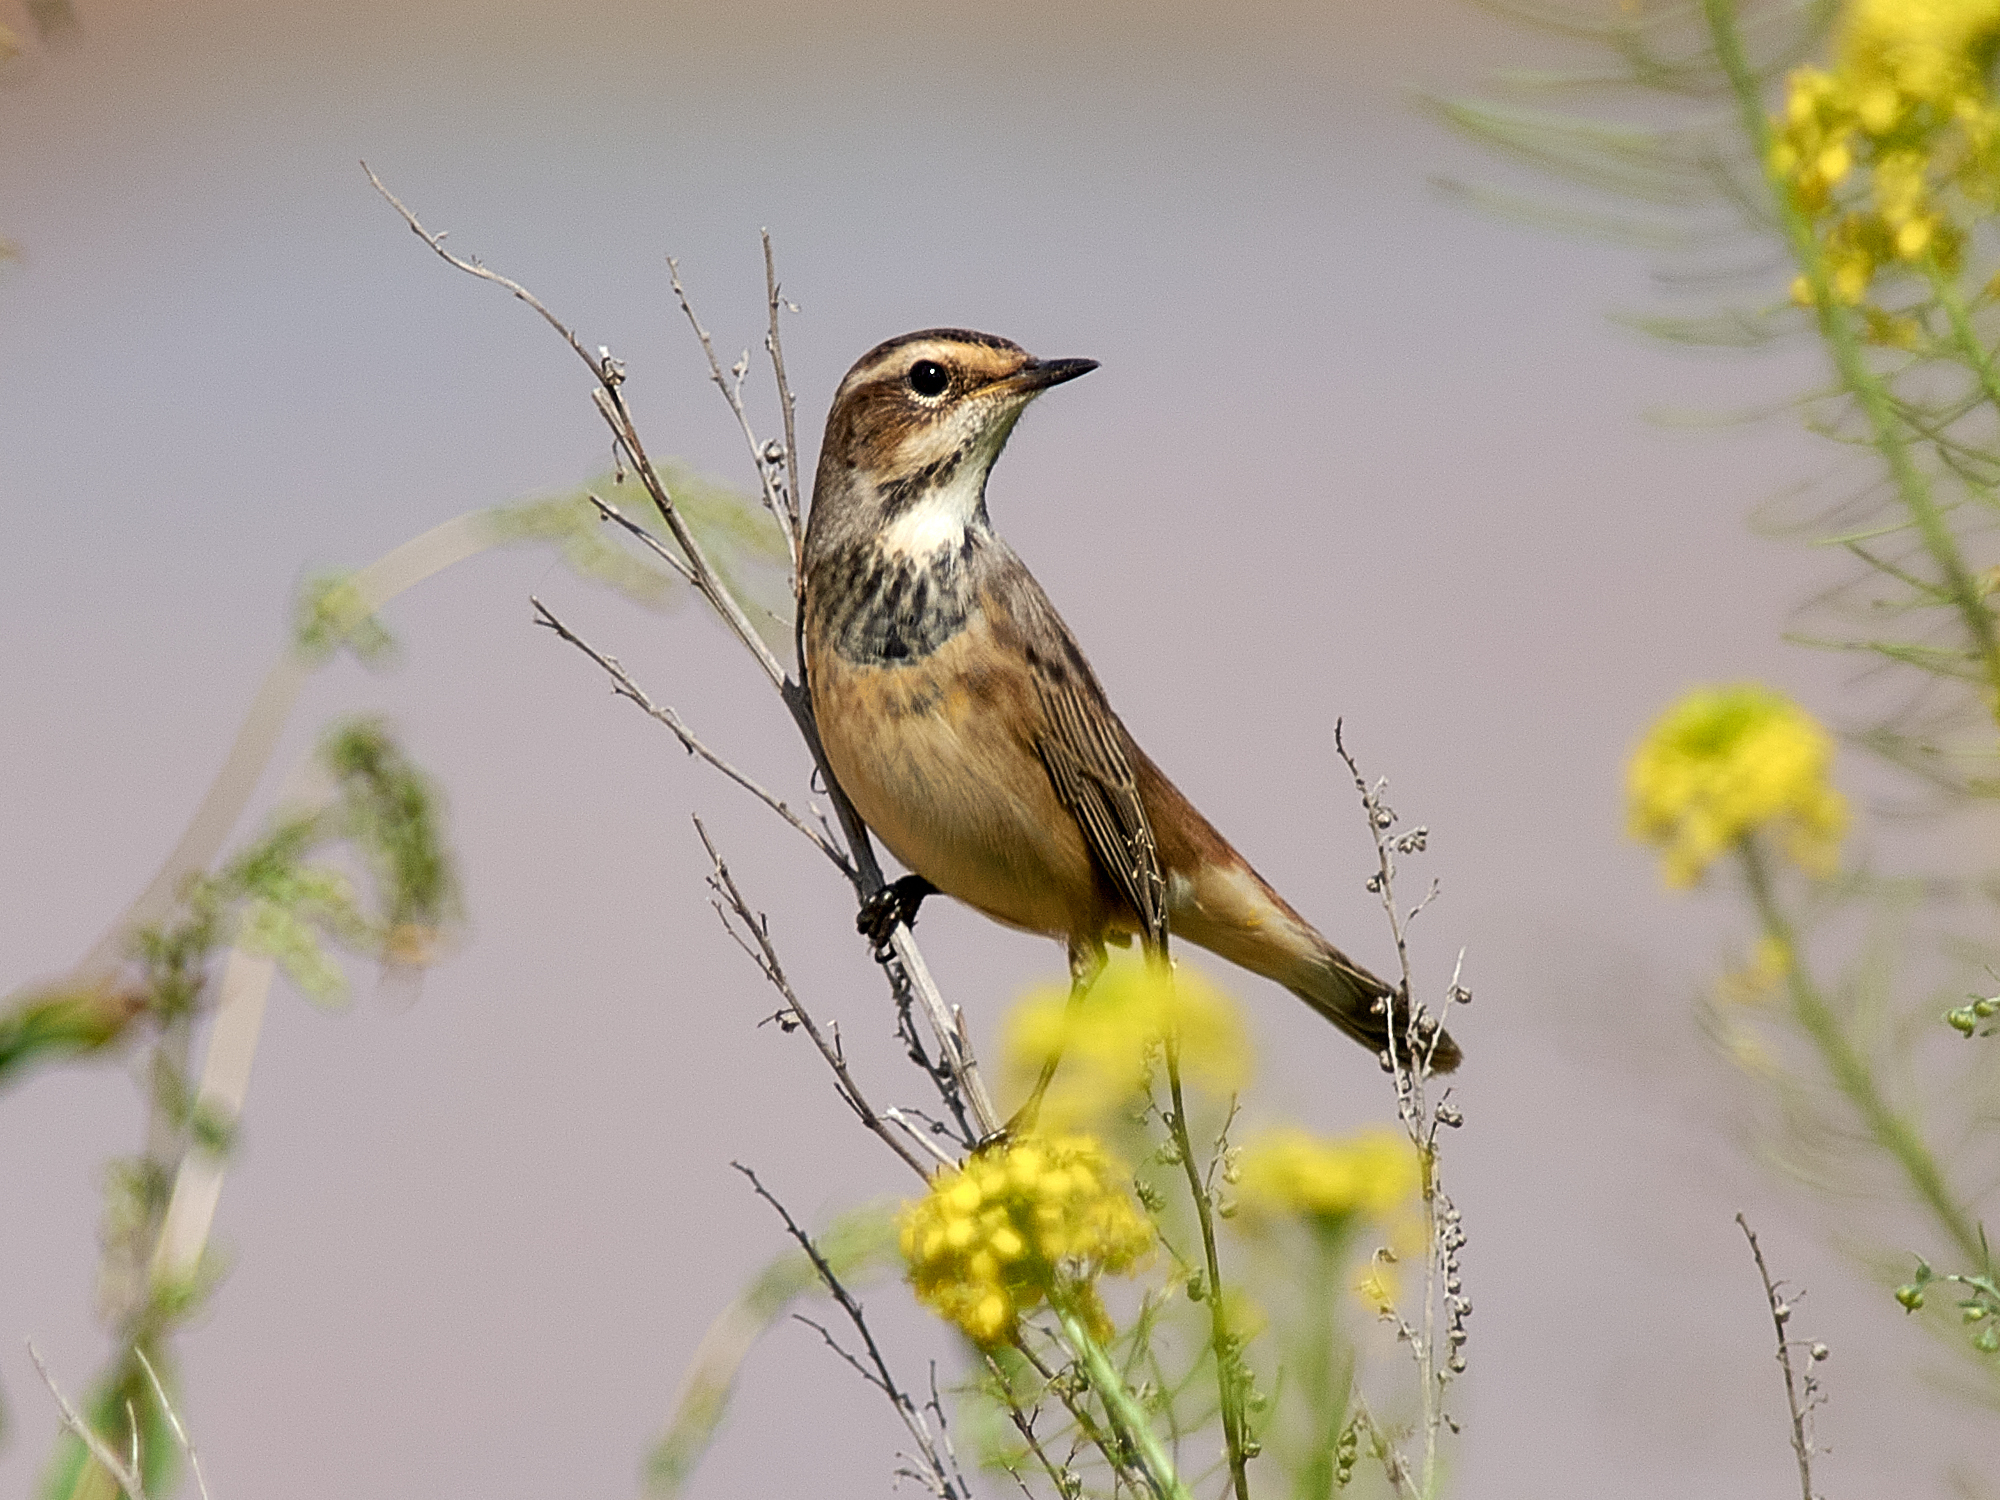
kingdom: Animalia
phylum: Chordata
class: Aves
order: Passeriformes
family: Muscicapidae
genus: Luscinia
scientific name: Luscinia svecica
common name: Bluethroat
